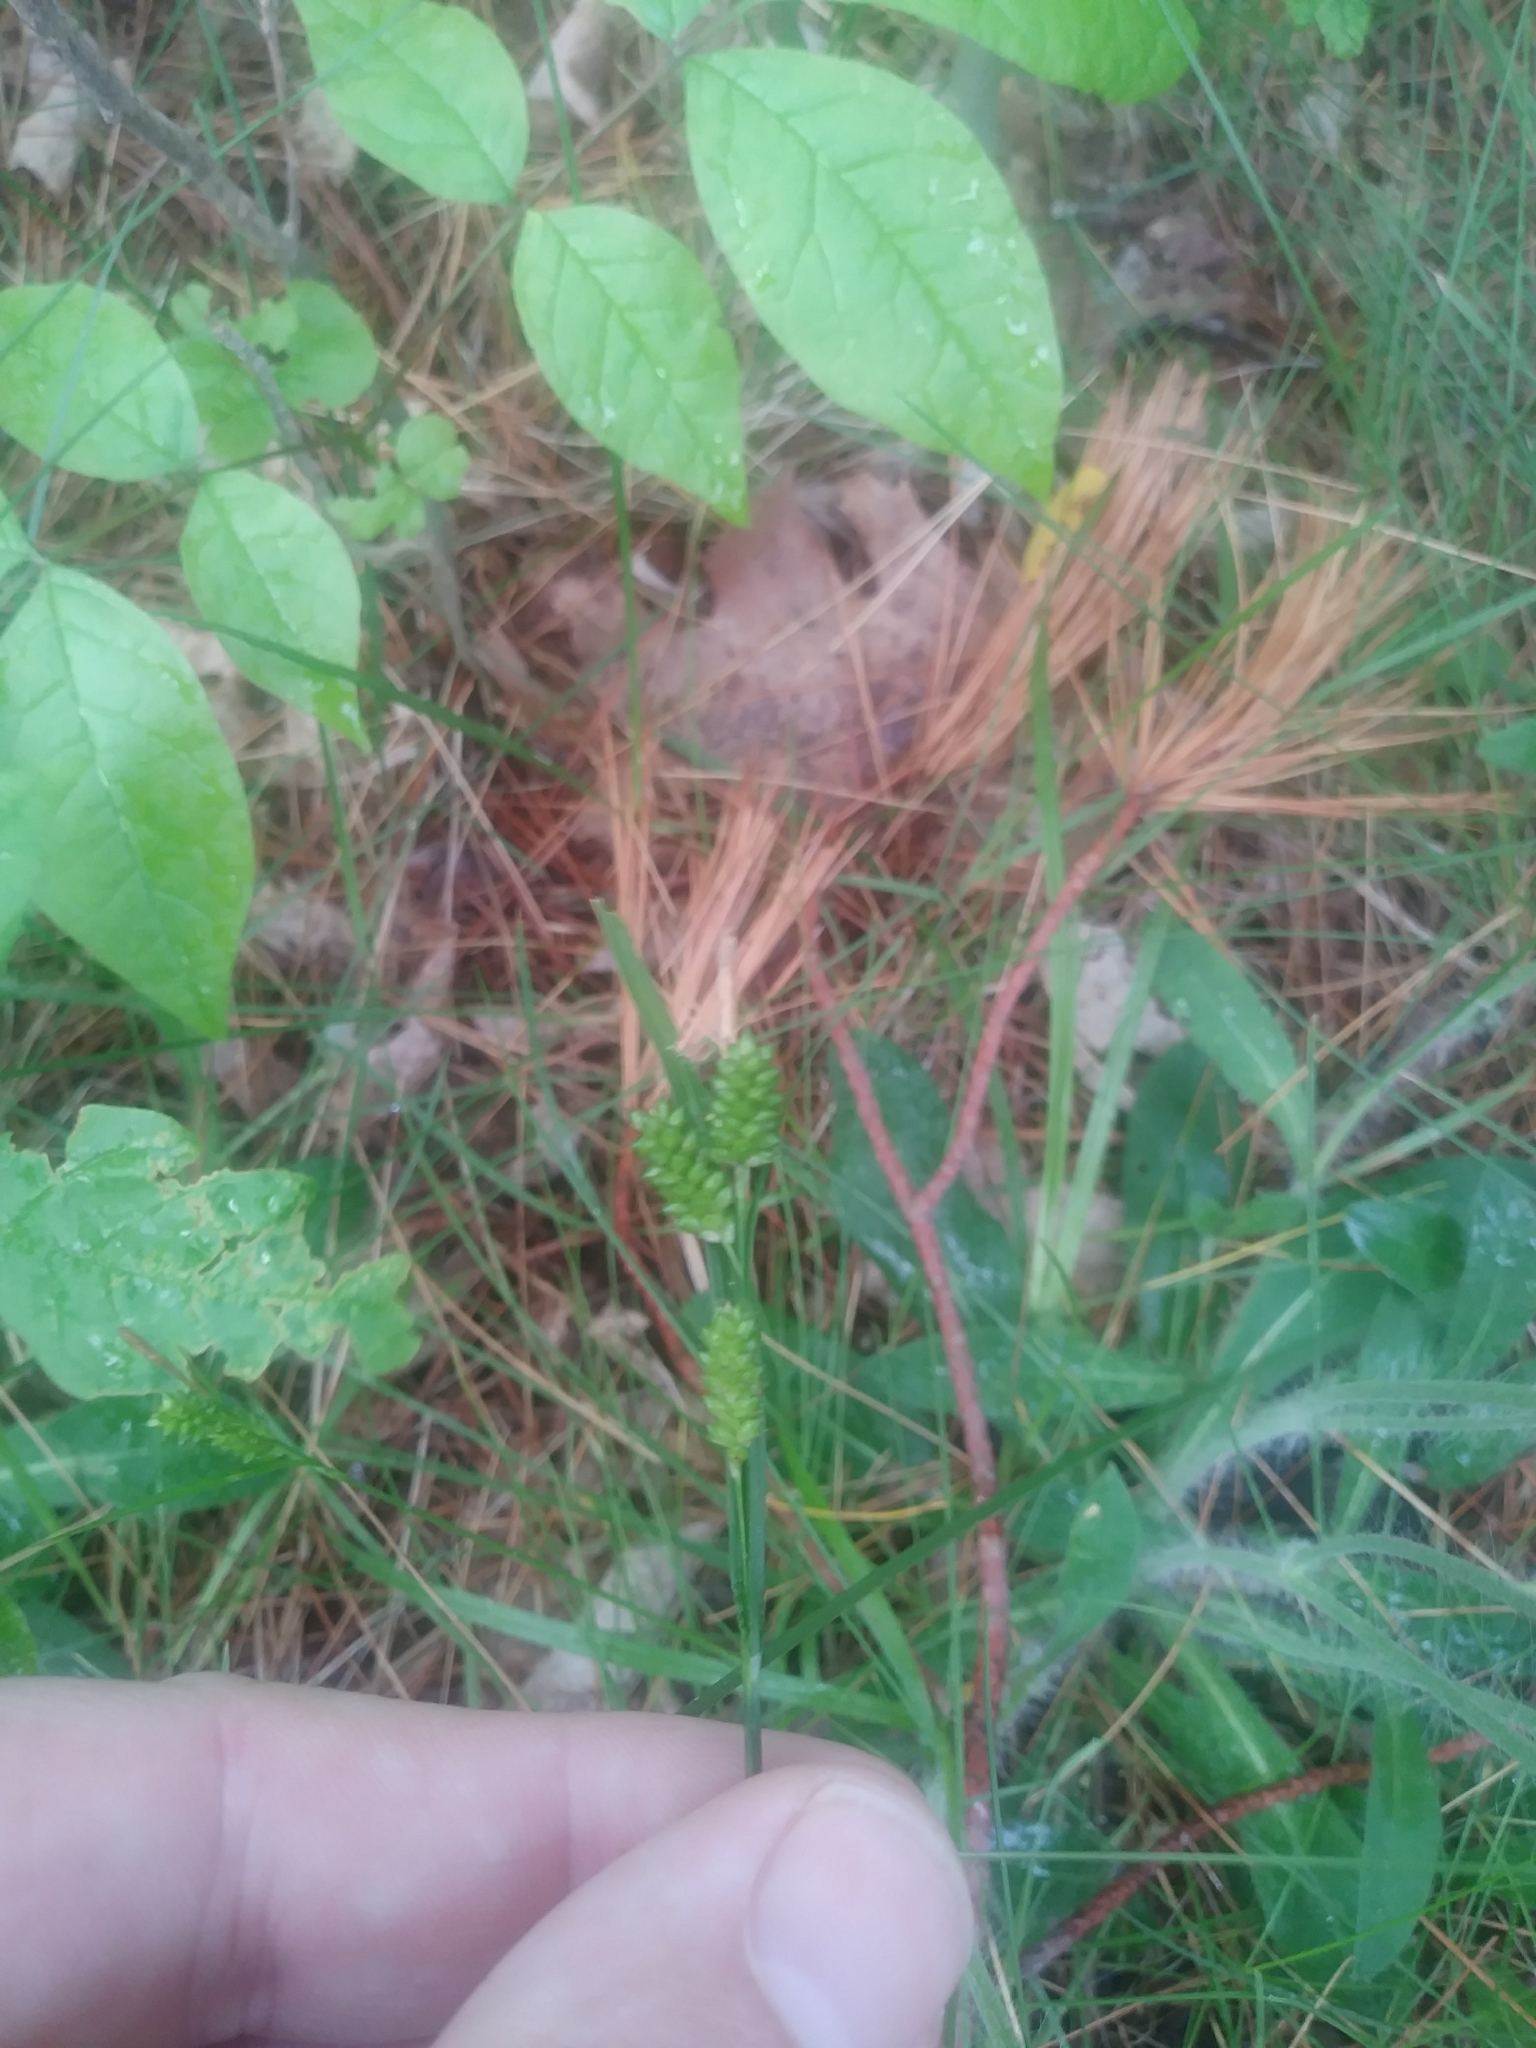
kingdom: Plantae
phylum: Tracheophyta
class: Liliopsida
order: Poales
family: Cyperaceae
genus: Carex
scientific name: Carex pallescens
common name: Pale sedge
